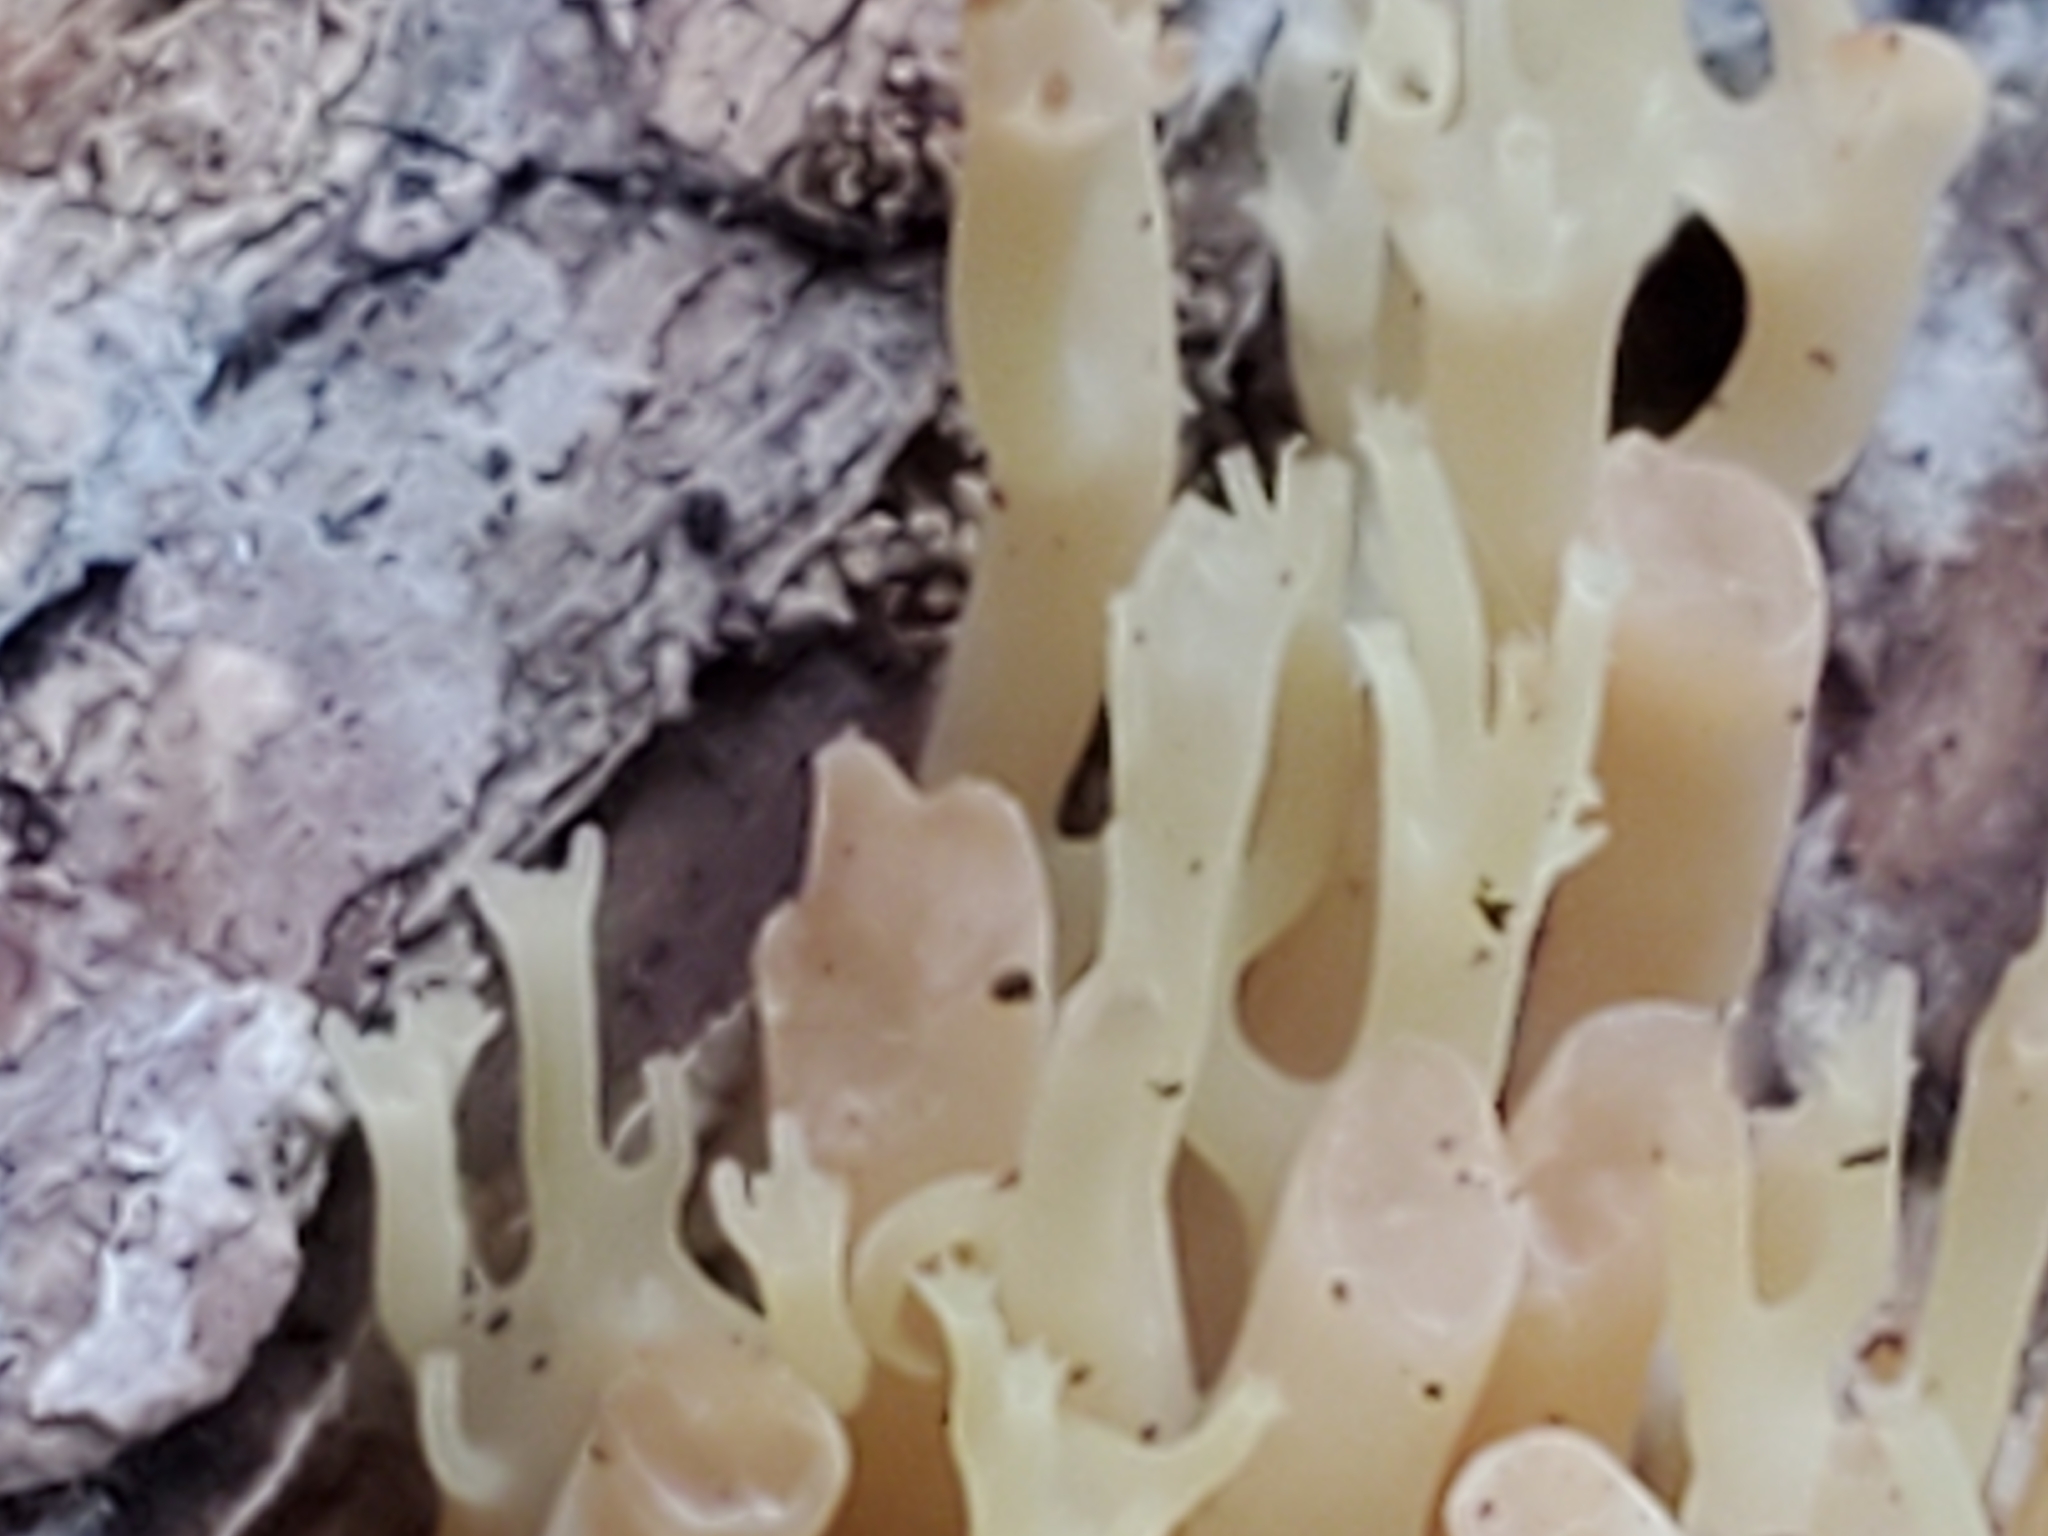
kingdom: Fungi
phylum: Basidiomycota
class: Agaricomycetes
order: Russulales
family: Auriscalpiaceae
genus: Artomyces
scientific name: Artomyces pyxidatus
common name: Crown-tipped coral fungus
